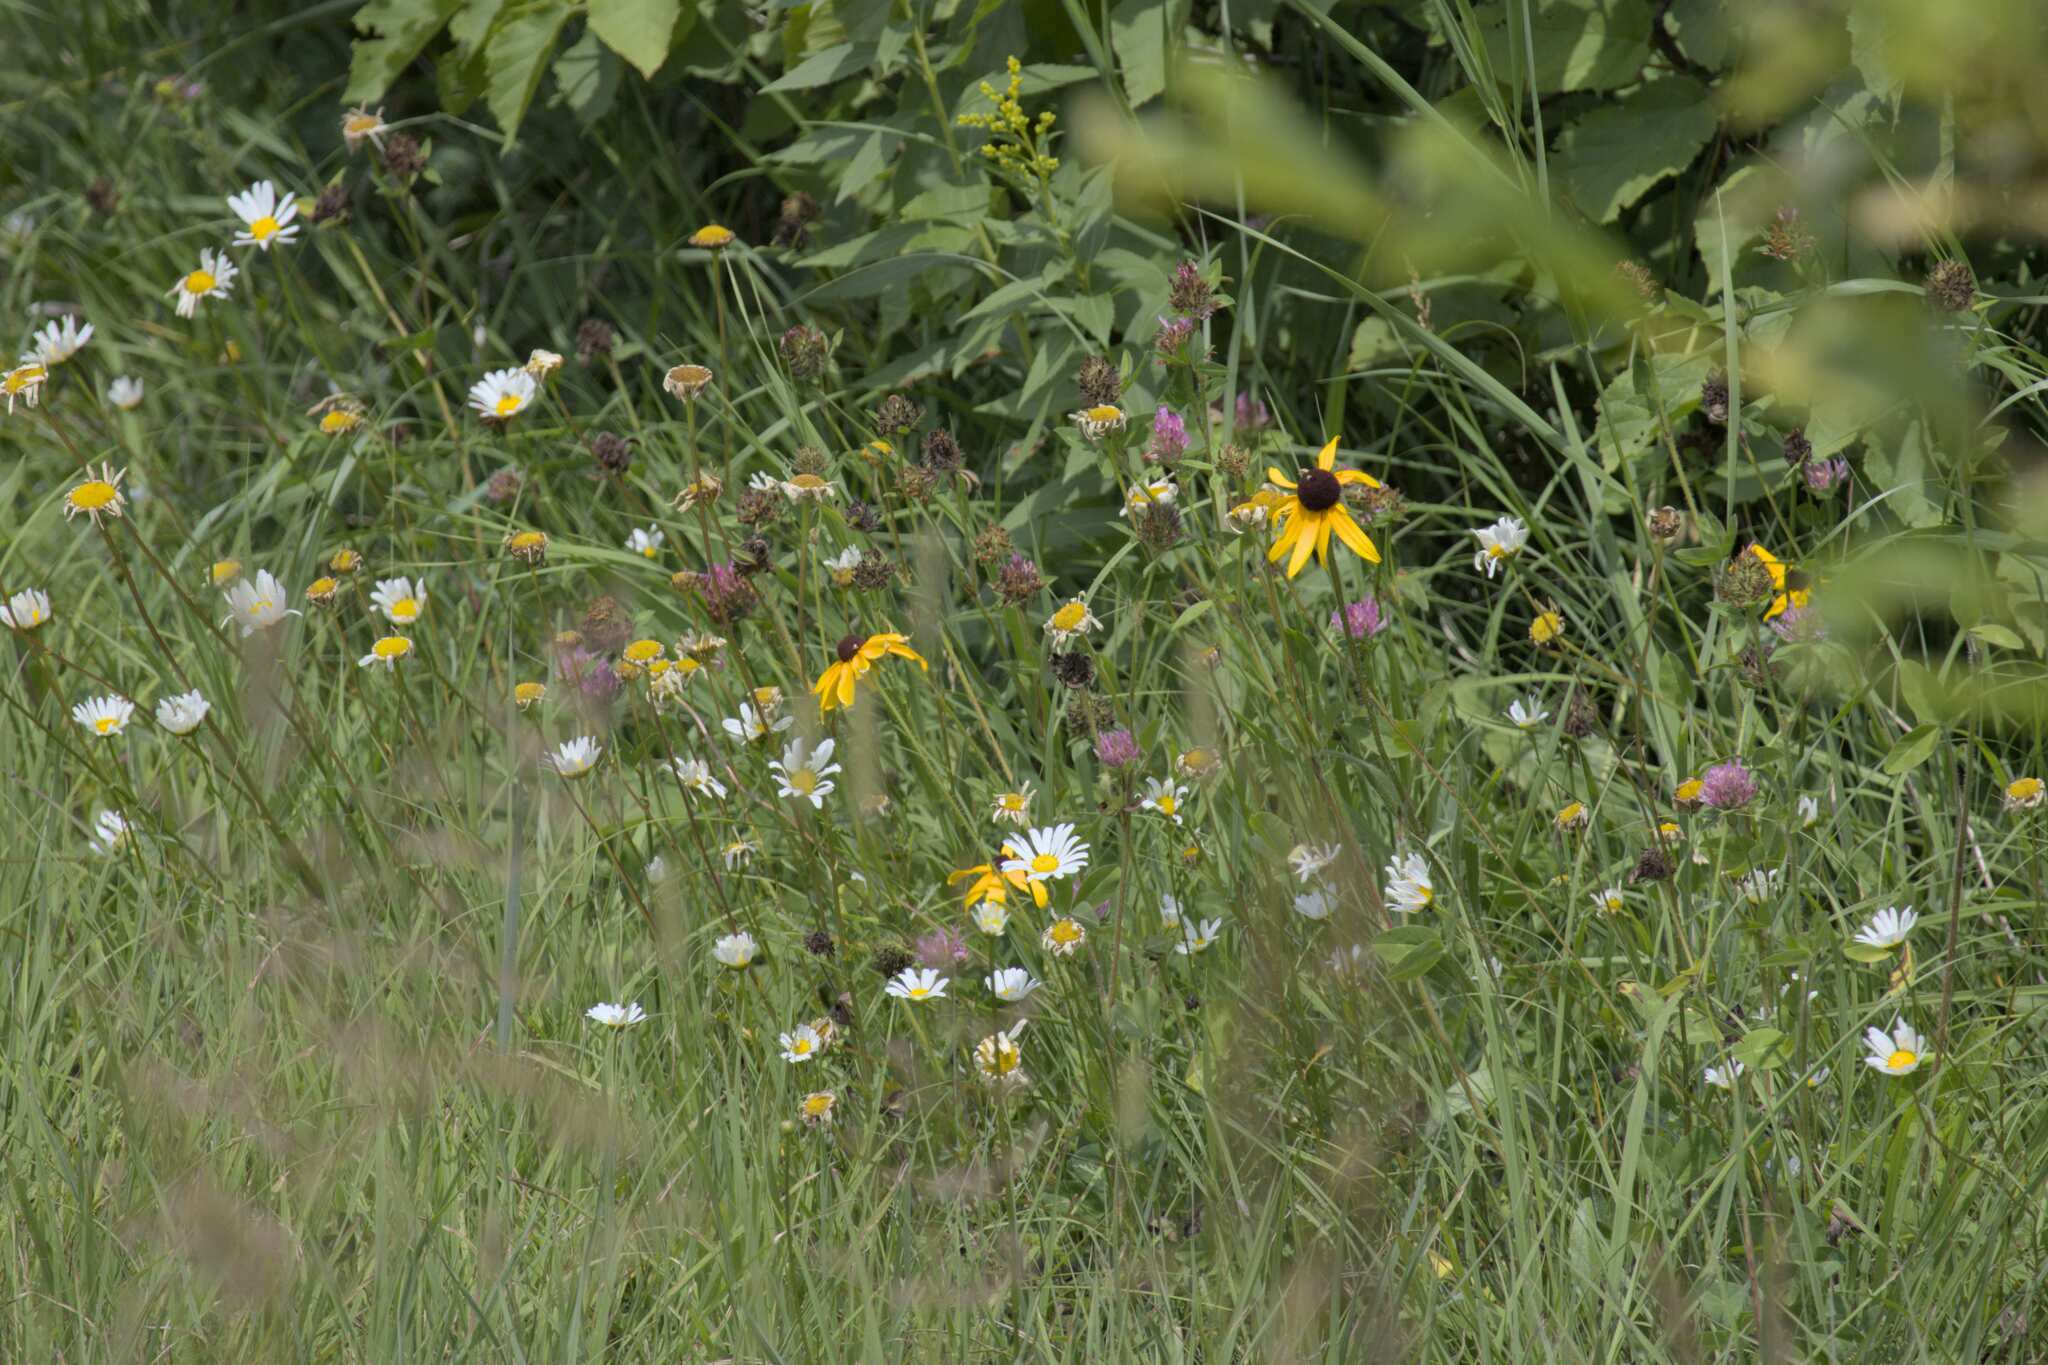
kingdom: Plantae
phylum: Tracheophyta
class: Magnoliopsida
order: Asterales
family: Asteraceae
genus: Leucanthemum
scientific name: Leucanthemum vulgare
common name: Oxeye daisy
